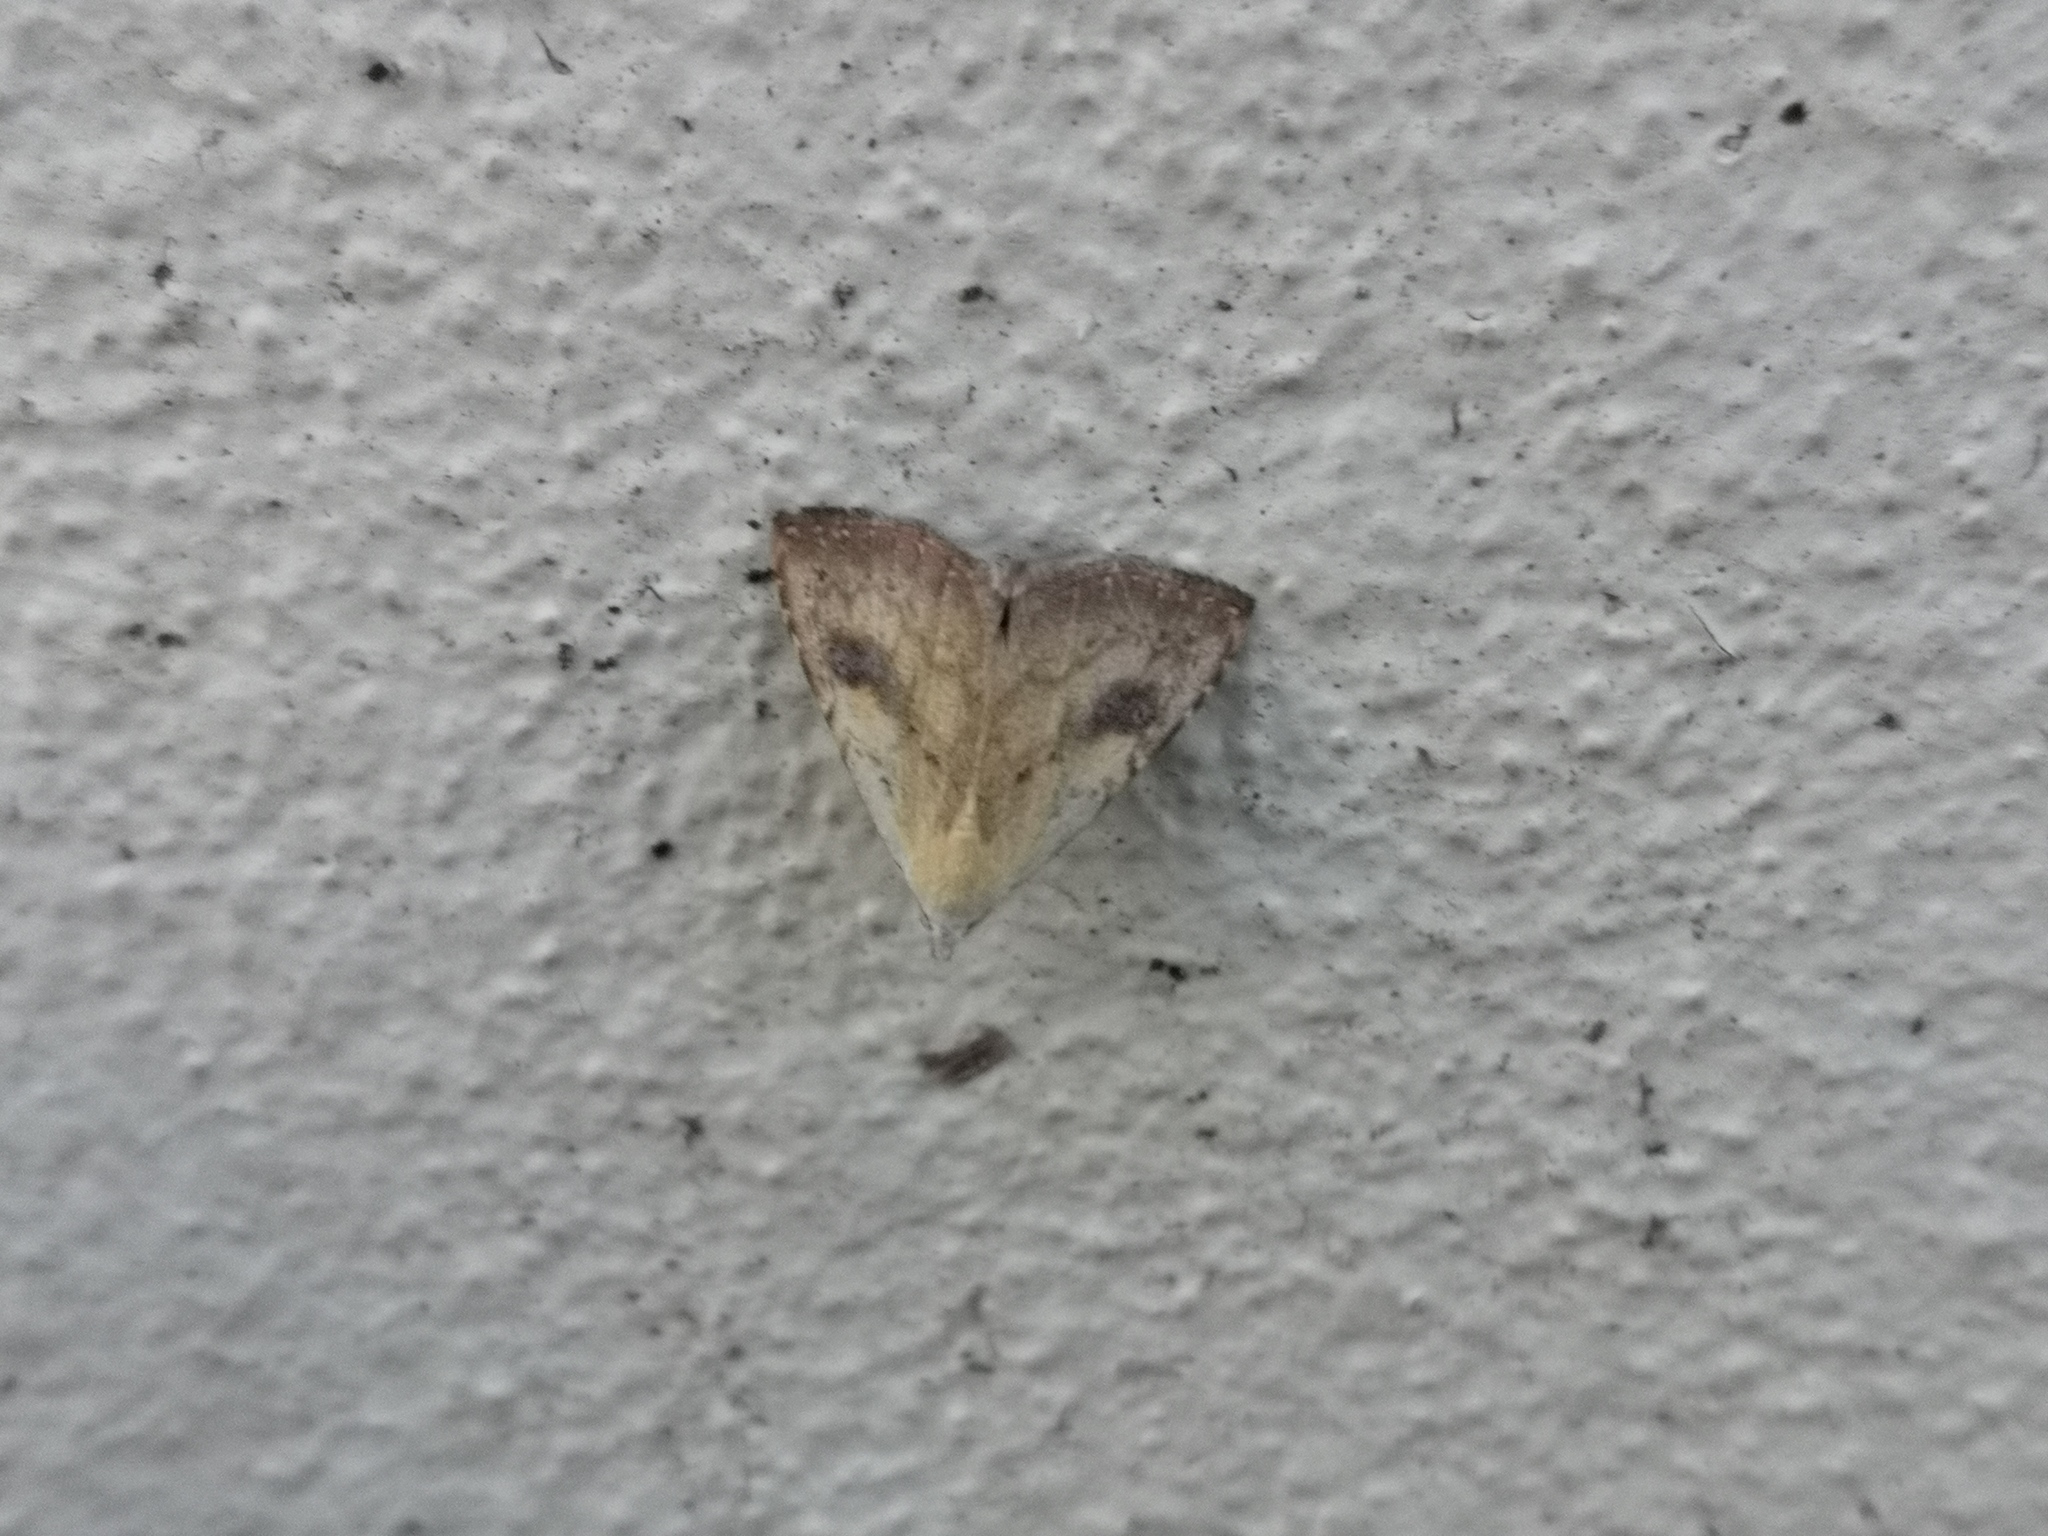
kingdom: Animalia
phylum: Arthropoda
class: Insecta
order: Lepidoptera
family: Erebidae
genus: Rivula
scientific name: Rivula sericealis
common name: Straw dot
